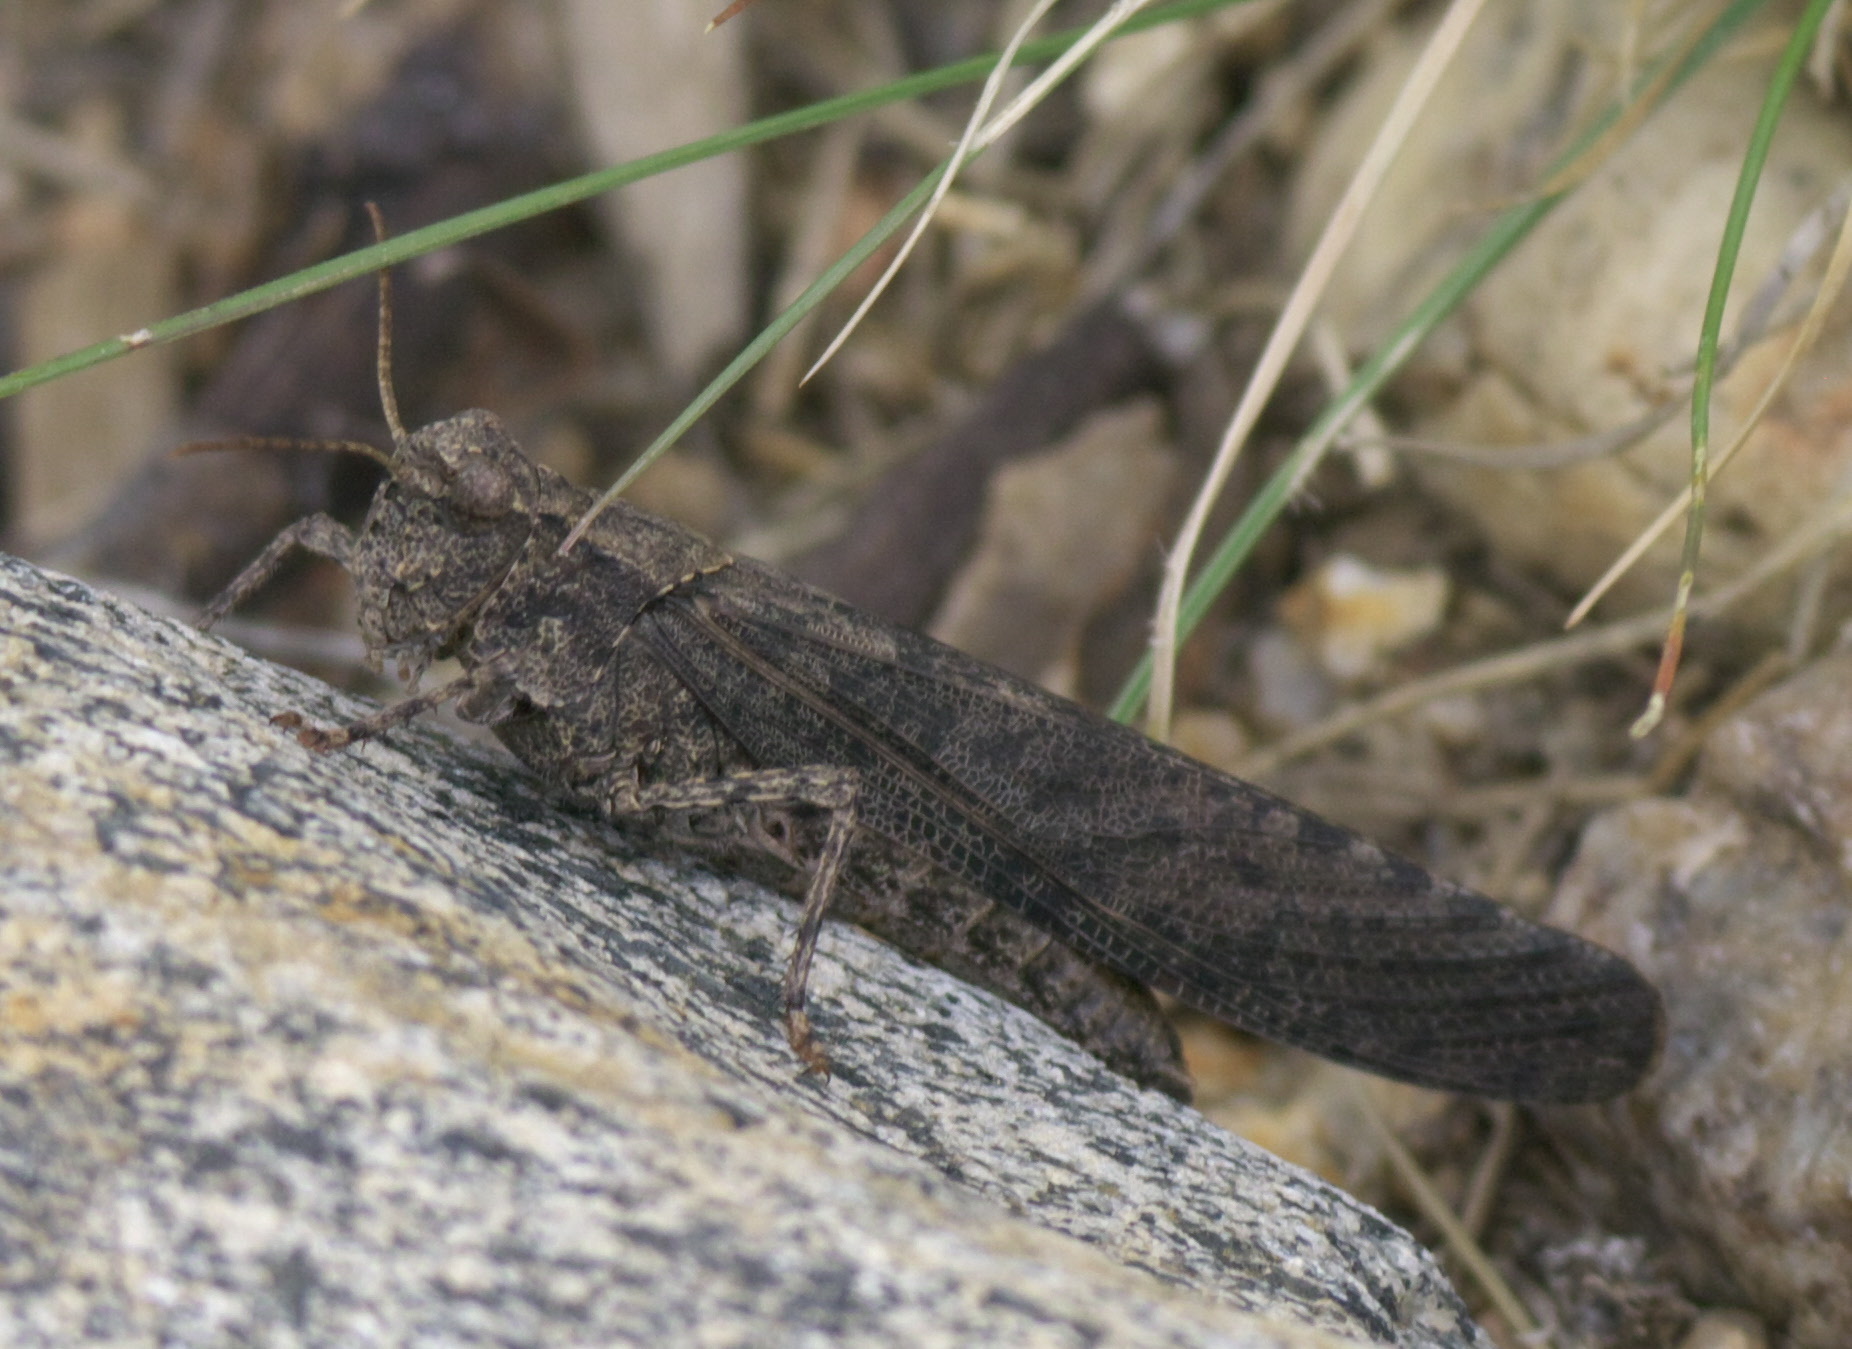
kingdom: Animalia
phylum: Arthropoda
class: Insecta
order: Orthoptera
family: Acrididae
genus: Trimerotropis
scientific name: Trimerotropis verruculata
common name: Crackling forest grasshopper
